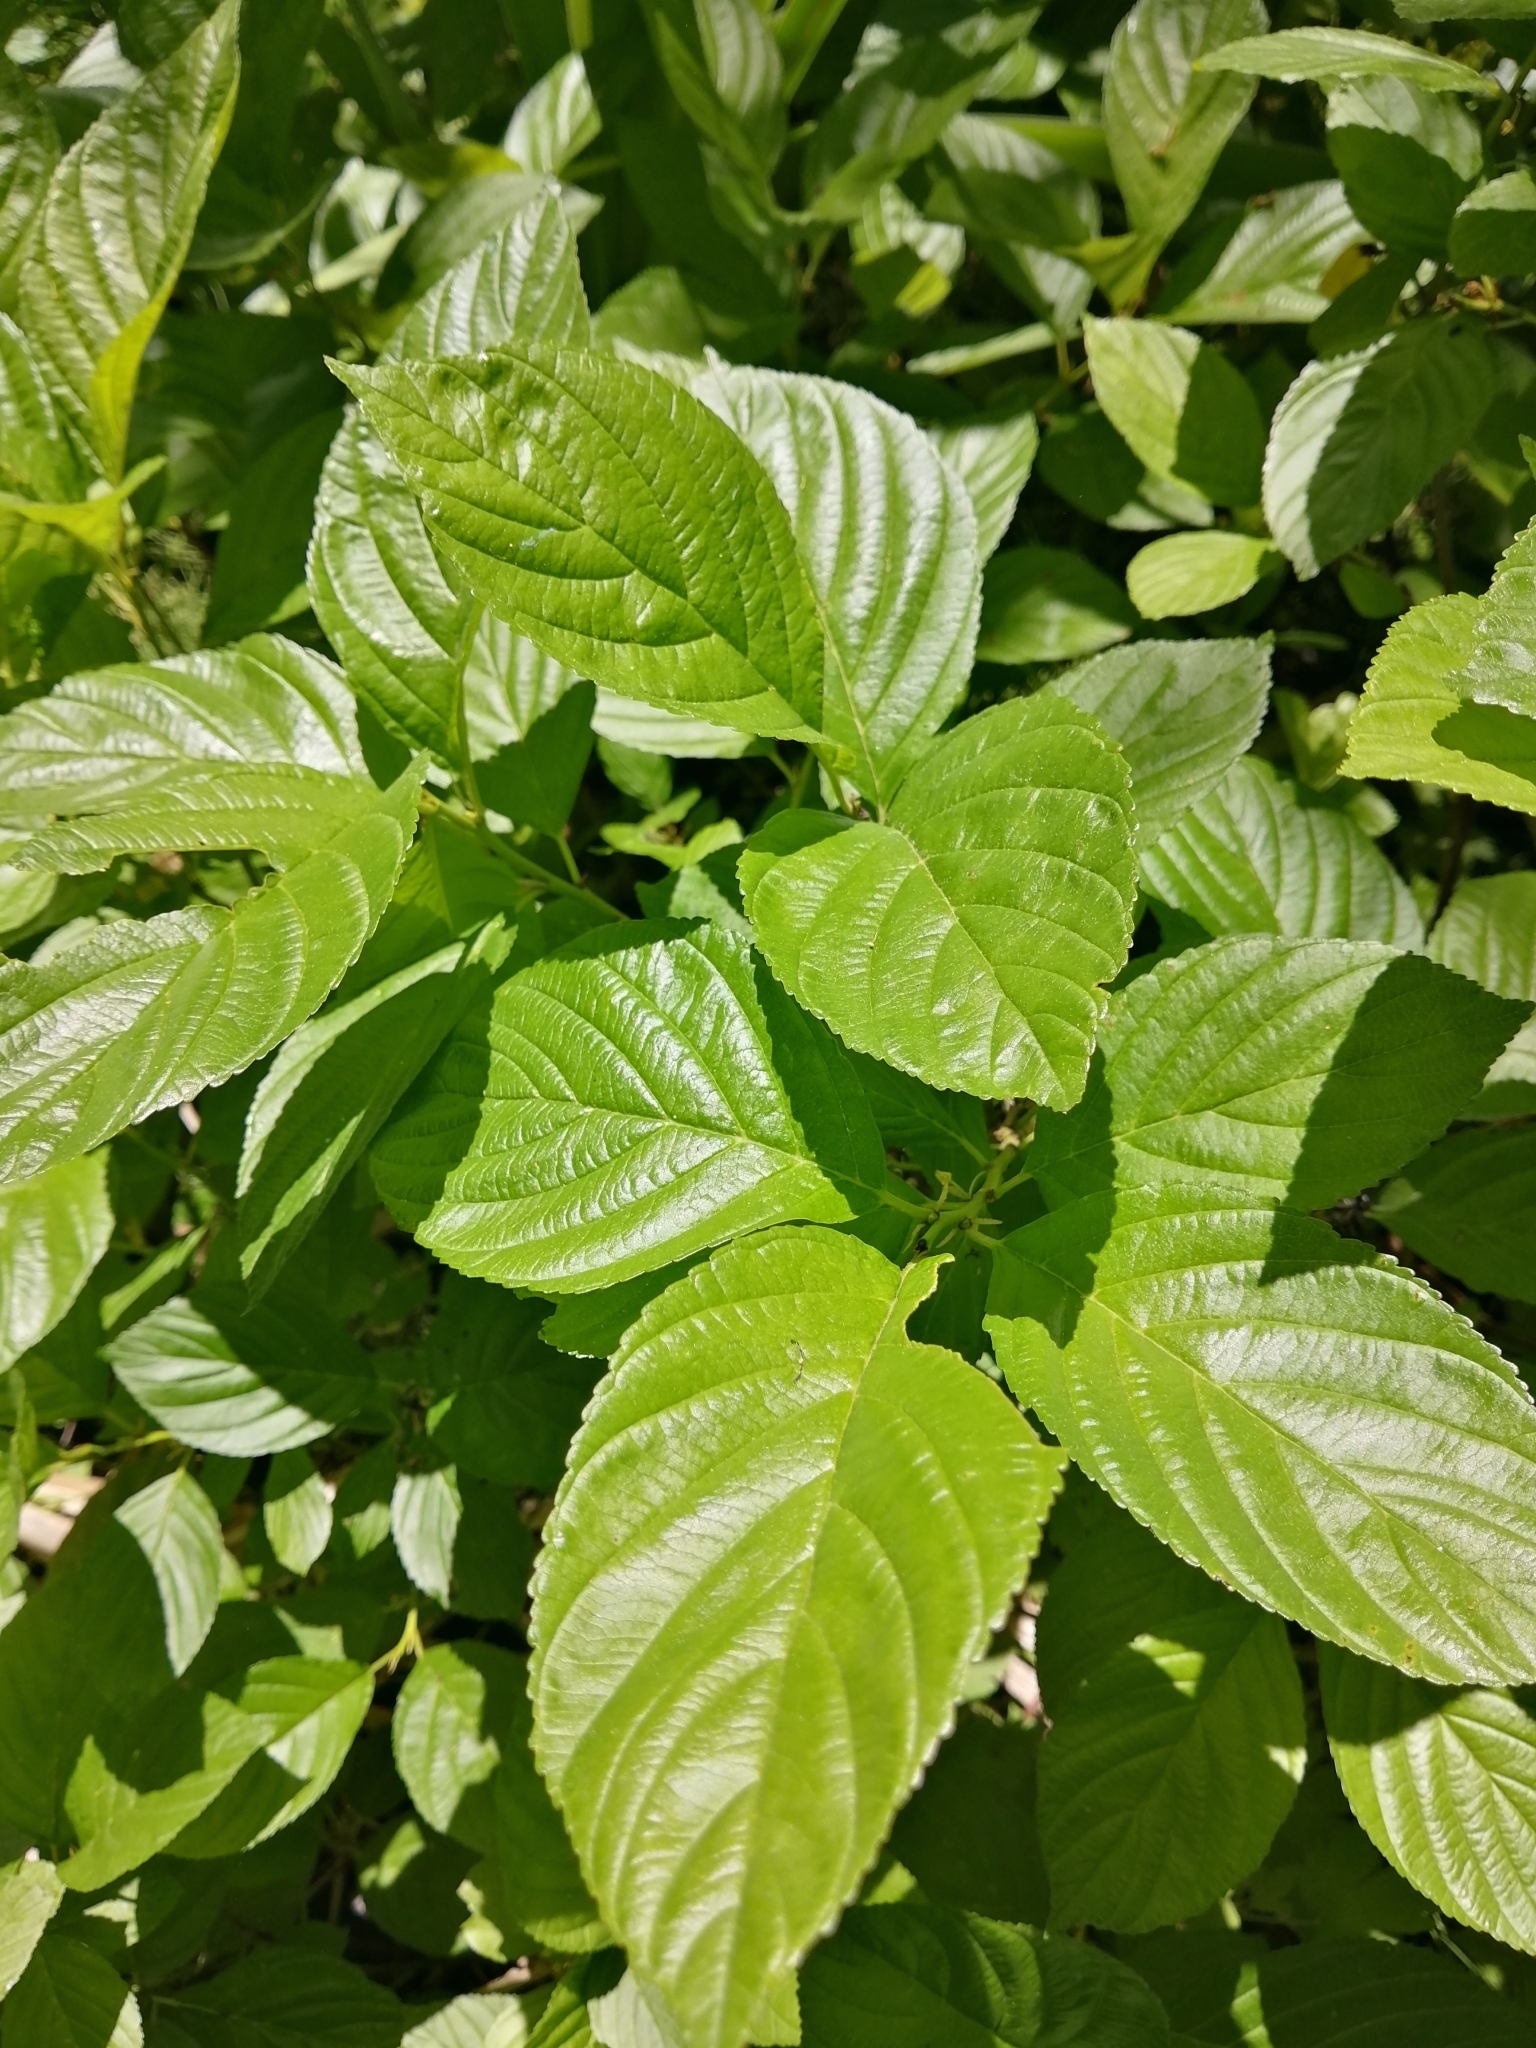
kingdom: Plantae
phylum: Tracheophyta
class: Magnoliopsida
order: Rosales
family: Rhamnaceae
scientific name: Rhamnaceae
